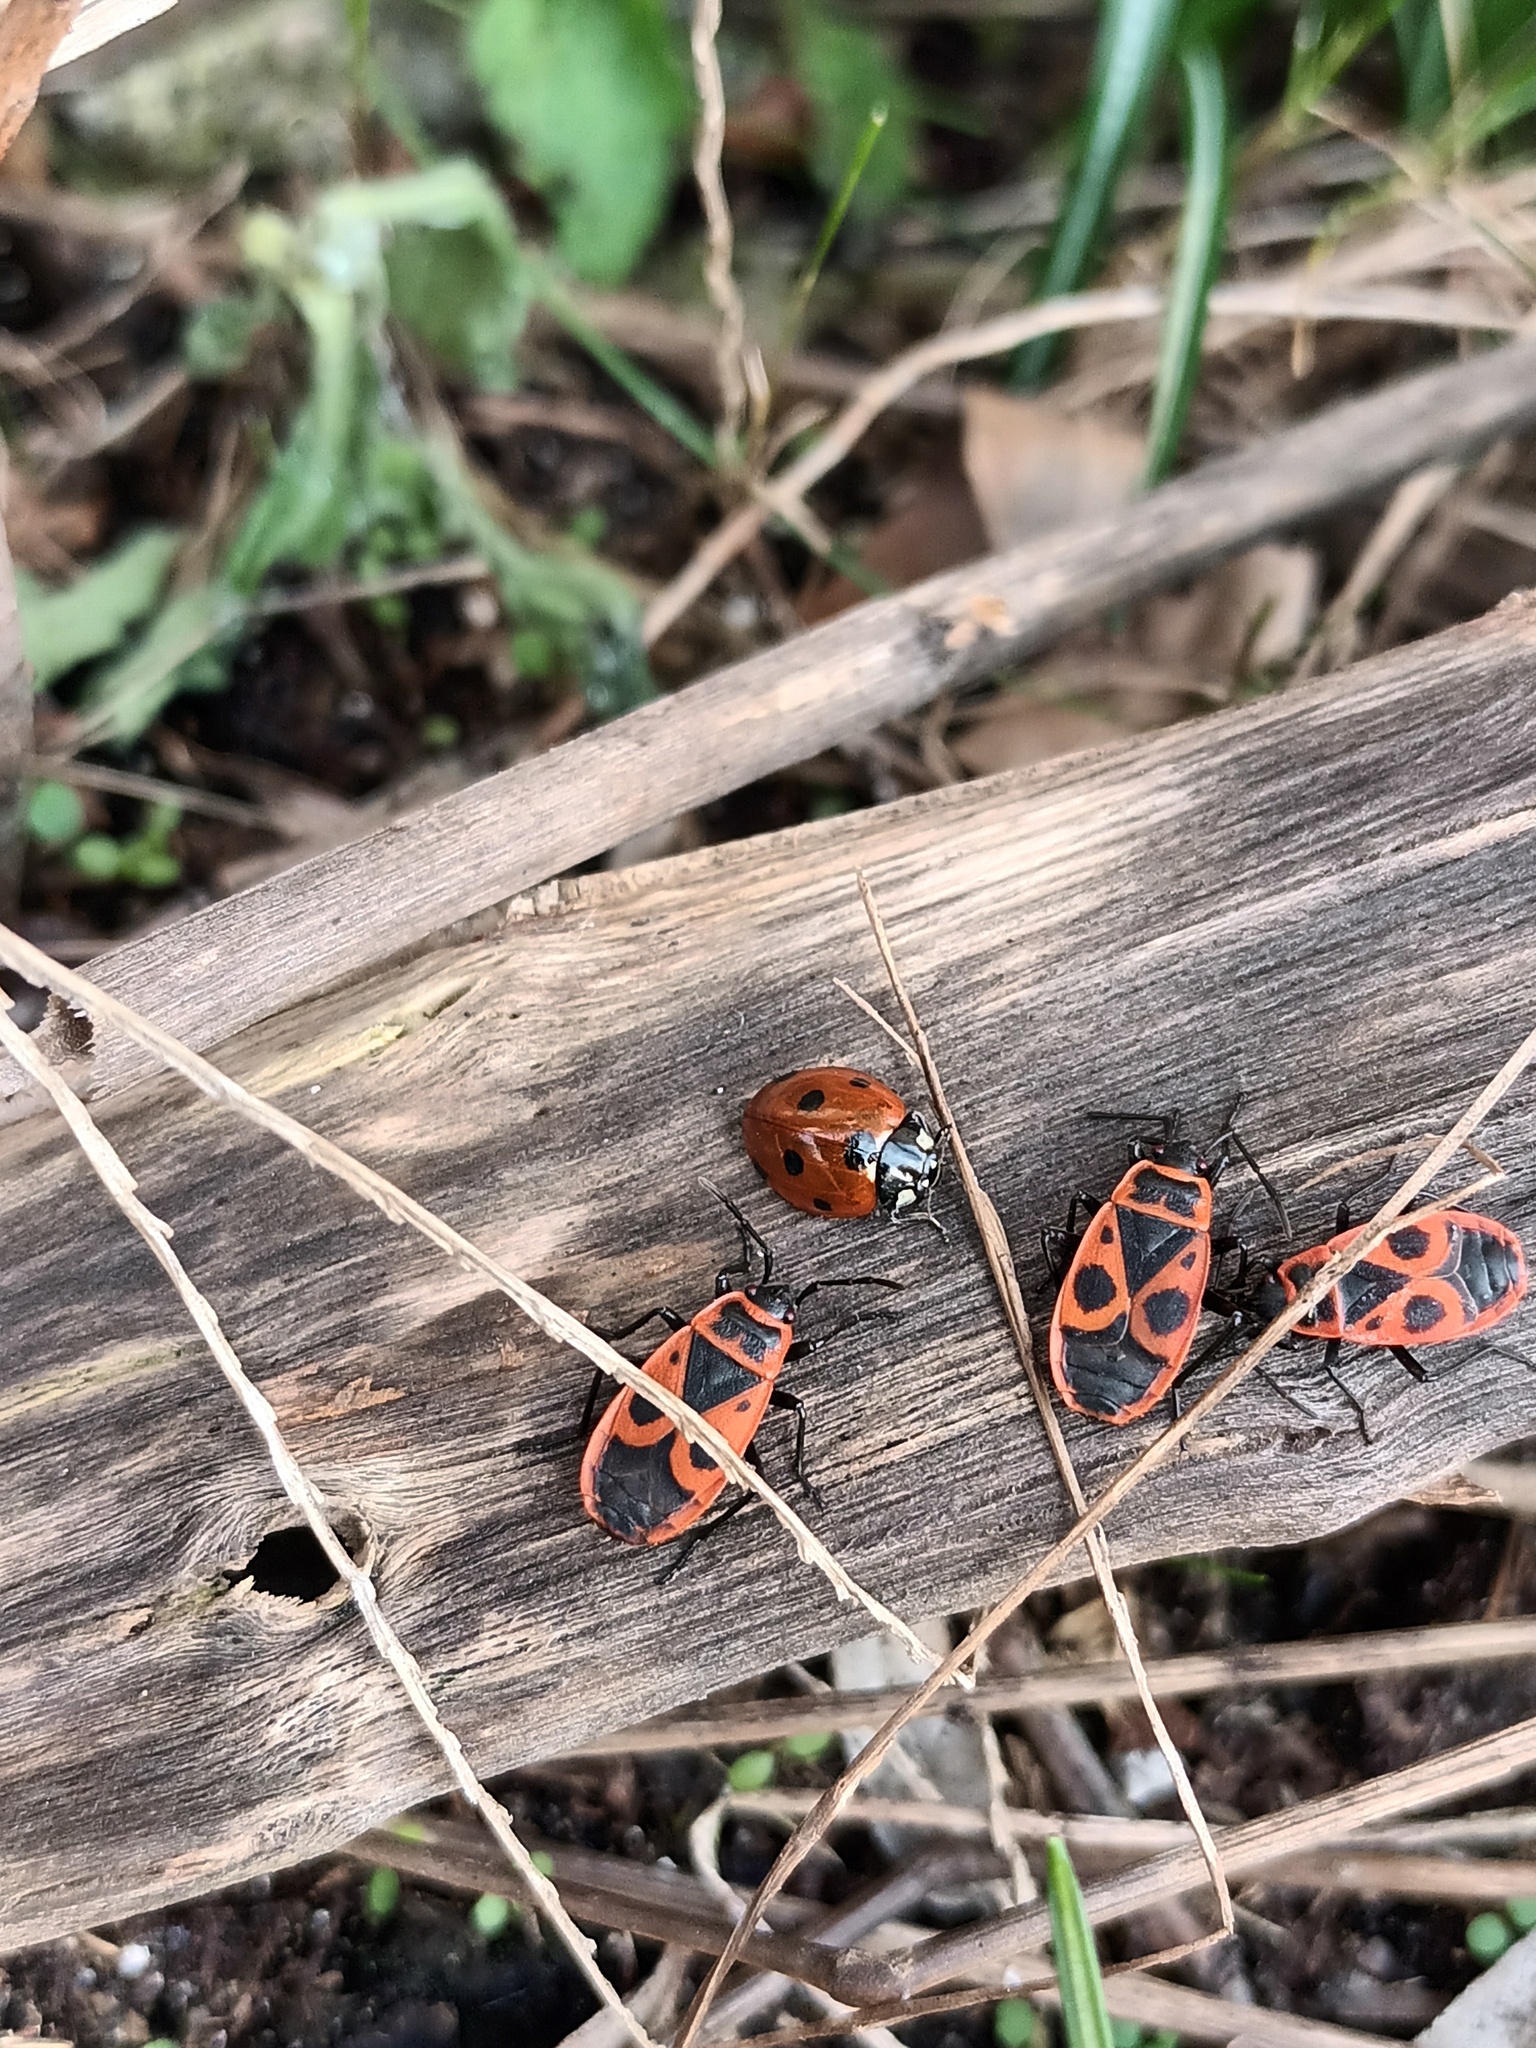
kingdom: Animalia
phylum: Arthropoda
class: Insecta
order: Coleoptera
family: Coccinellidae
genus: Coccinella
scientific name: Coccinella septempunctata
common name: Sevenspotted lady beetle
